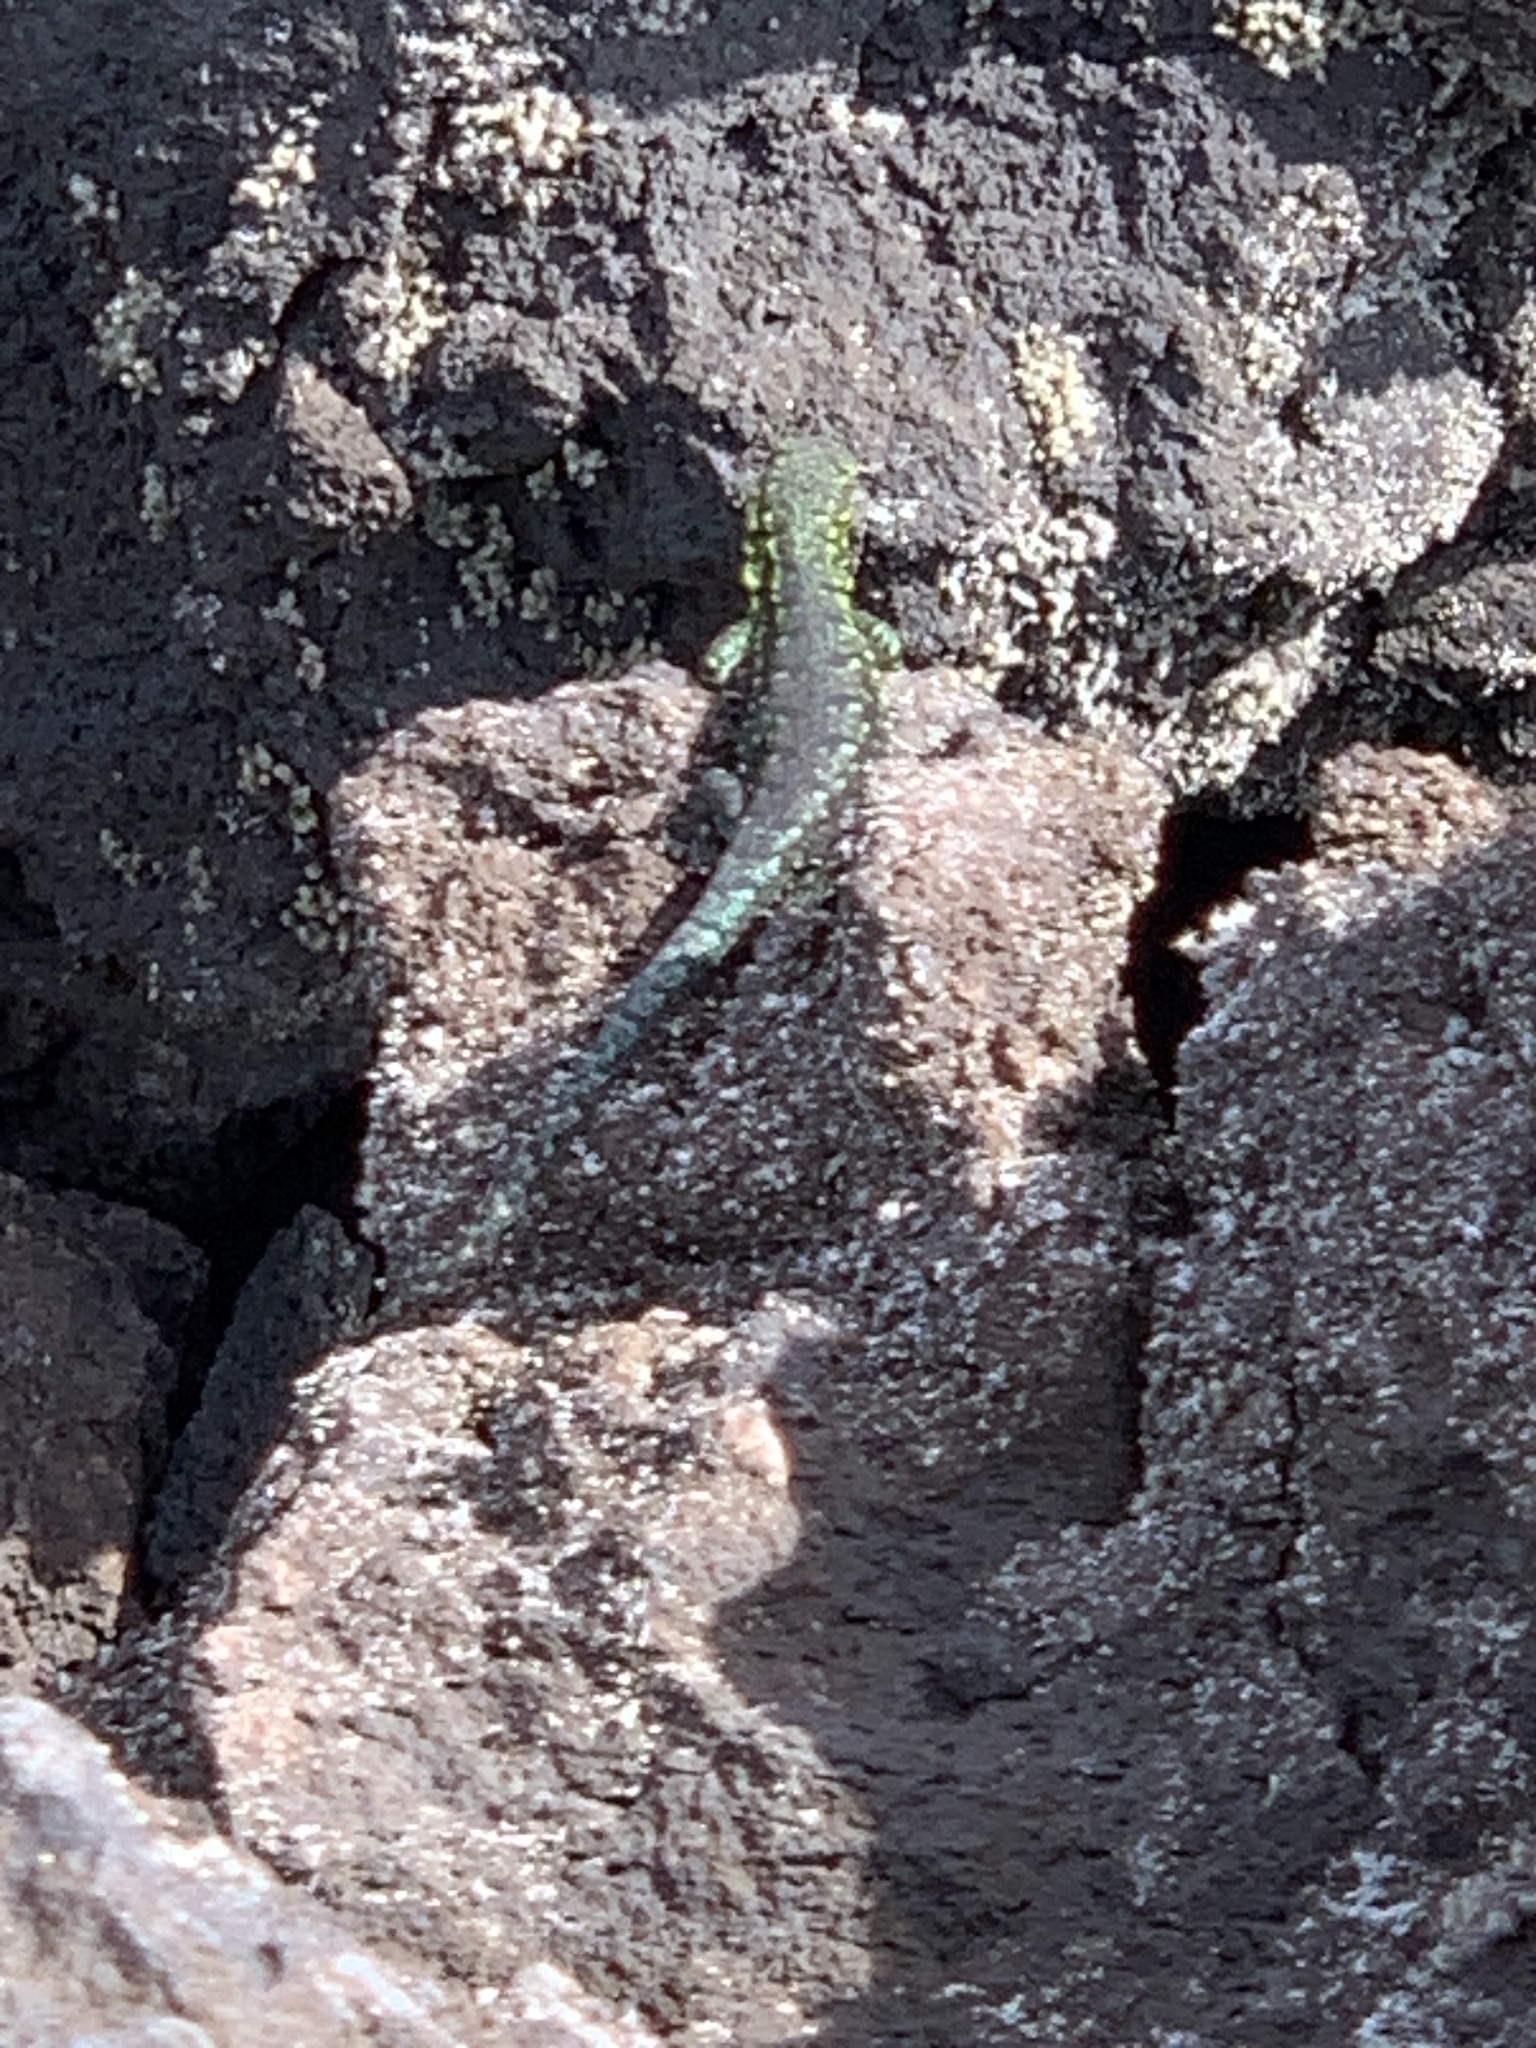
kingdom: Animalia
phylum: Chordata
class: Squamata
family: Liolaemidae
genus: Liolaemus
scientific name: Liolaemus tenuis
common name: Thin tree iguana
